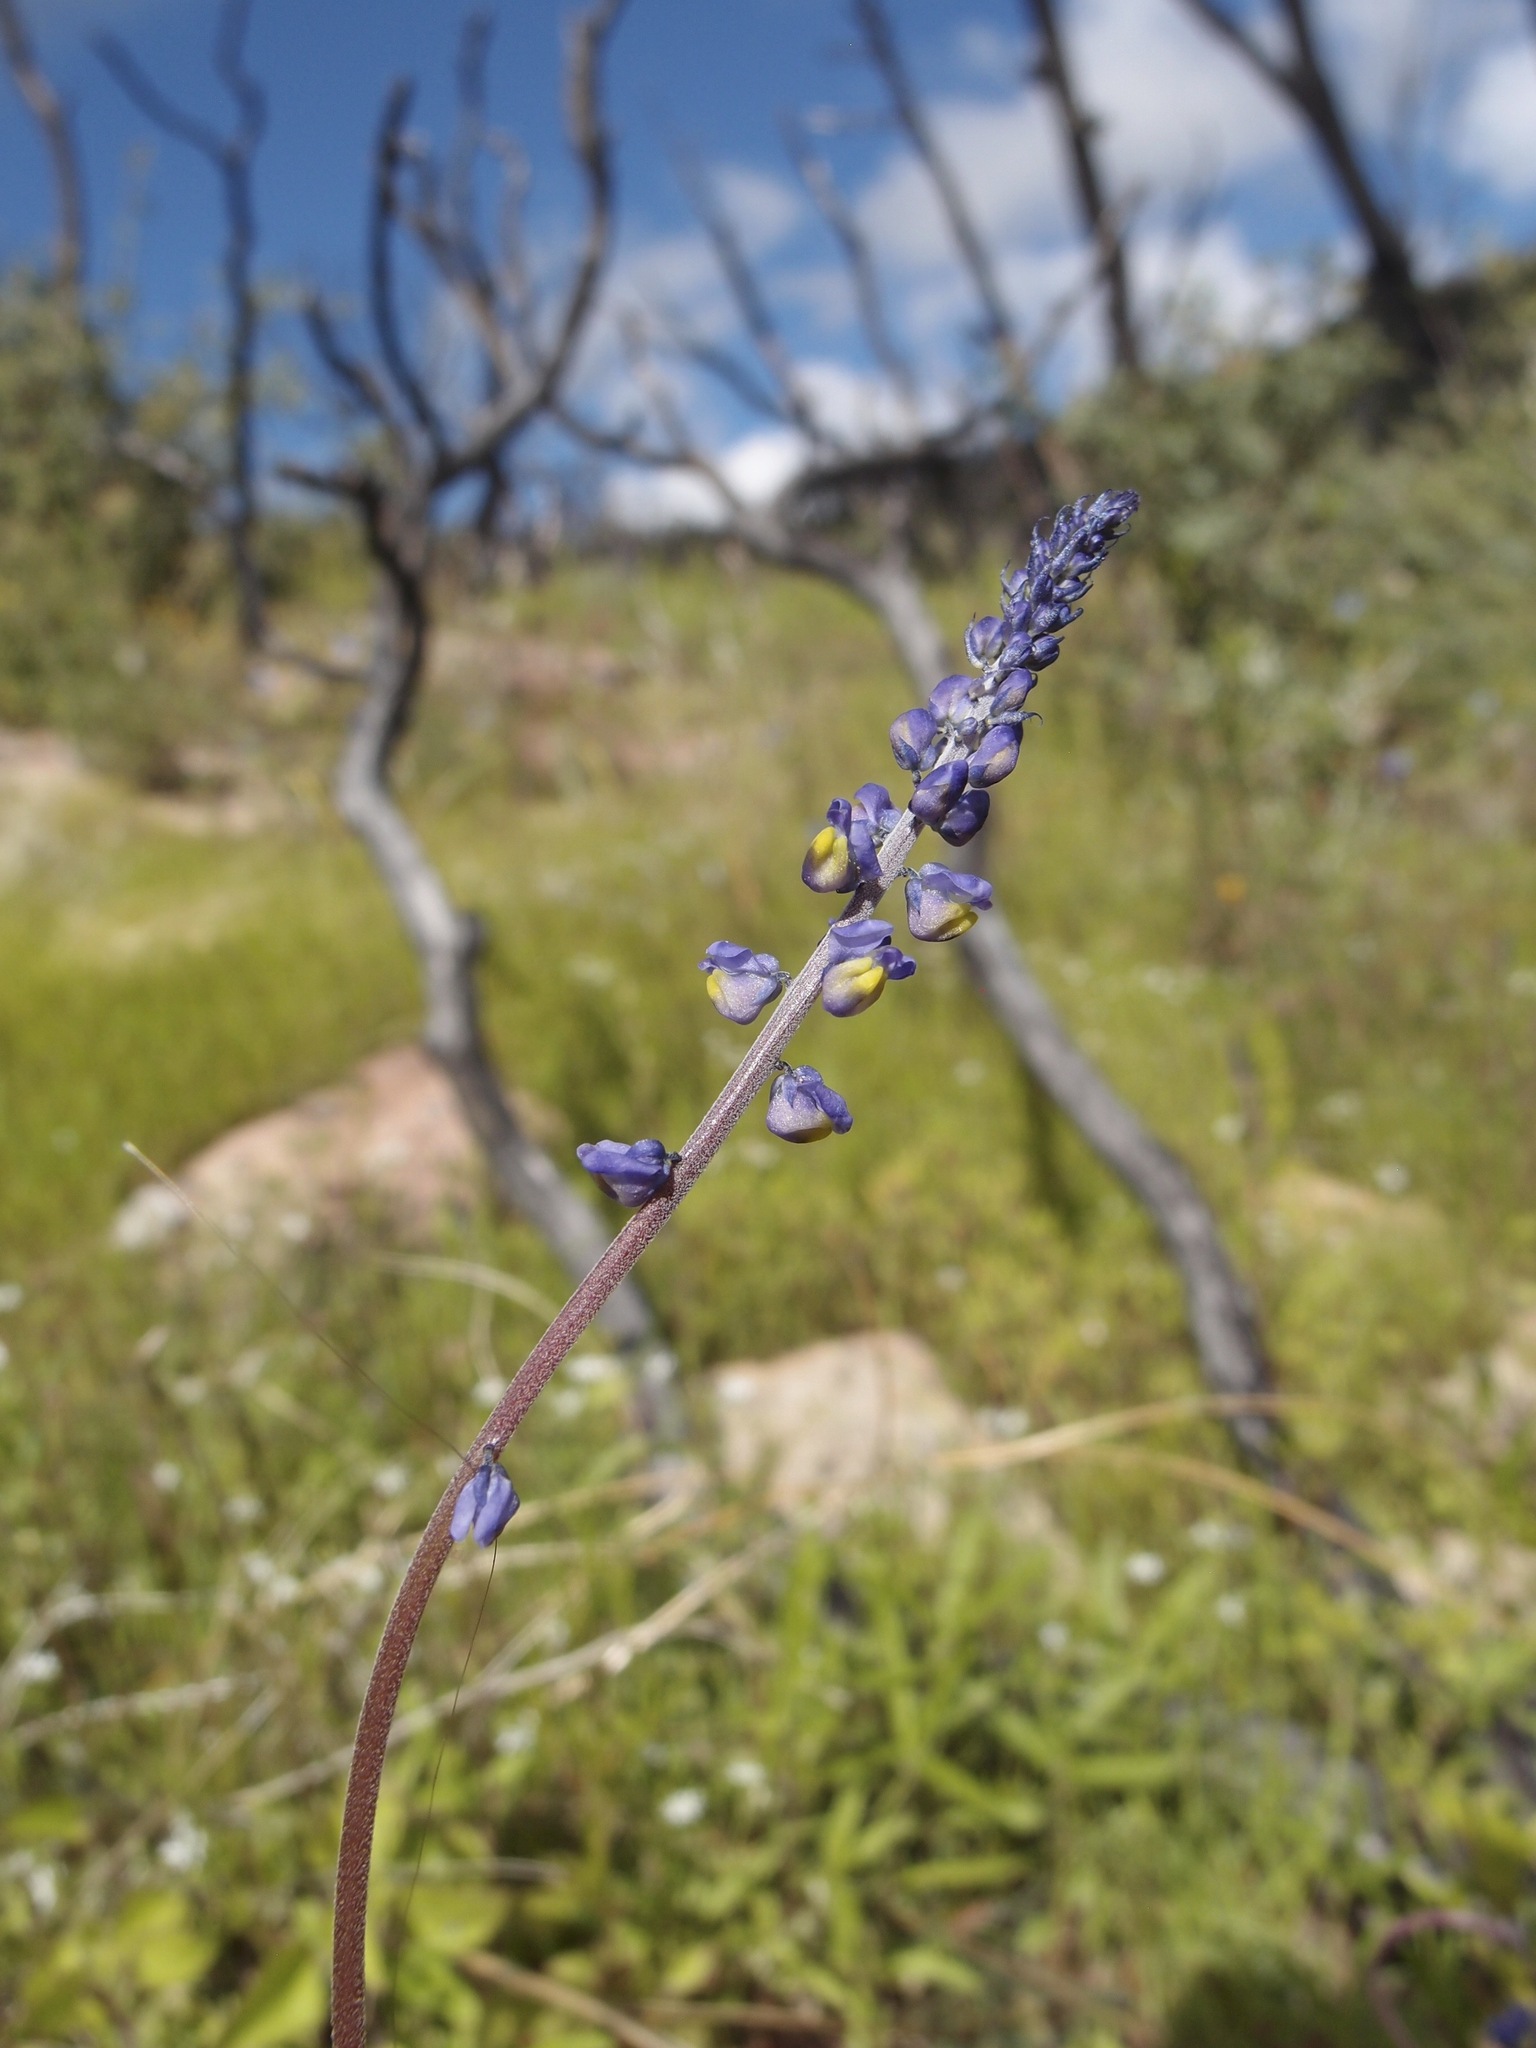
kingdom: Plantae
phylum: Tracheophyta
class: Magnoliopsida
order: Fabales
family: Polygalaceae
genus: Monnina
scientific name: Monnina wrightii
